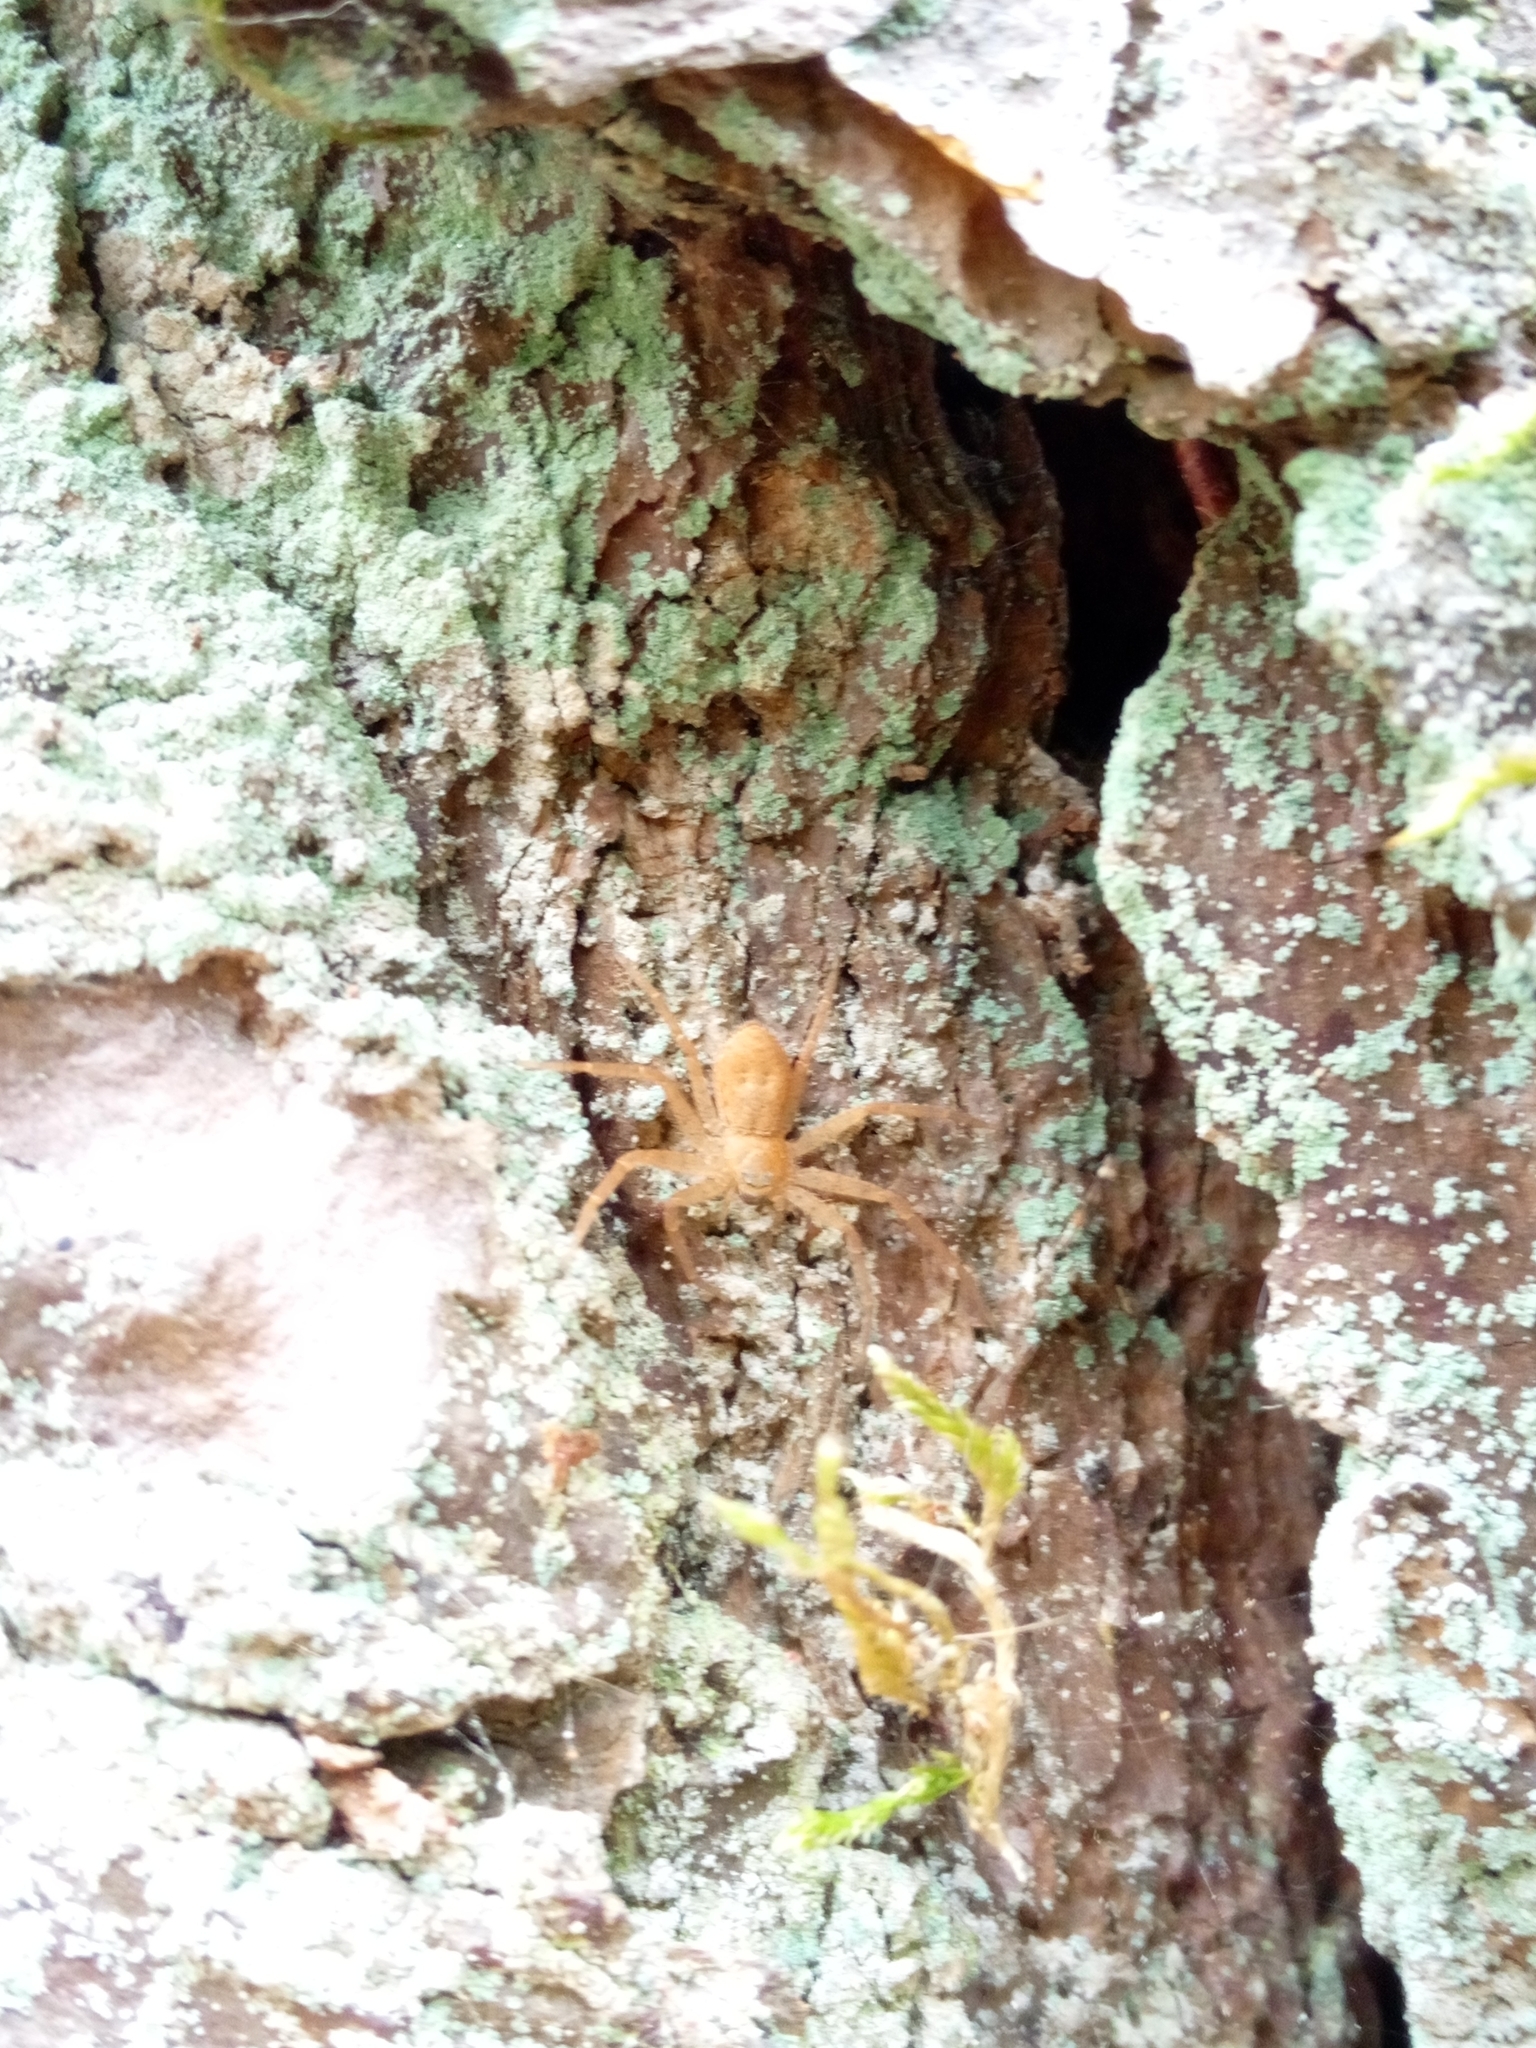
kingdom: Animalia
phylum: Arthropoda
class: Arachnida
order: Araneae
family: Philodromidae
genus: Philodromus
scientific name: Philodromus fuscomarginatus
